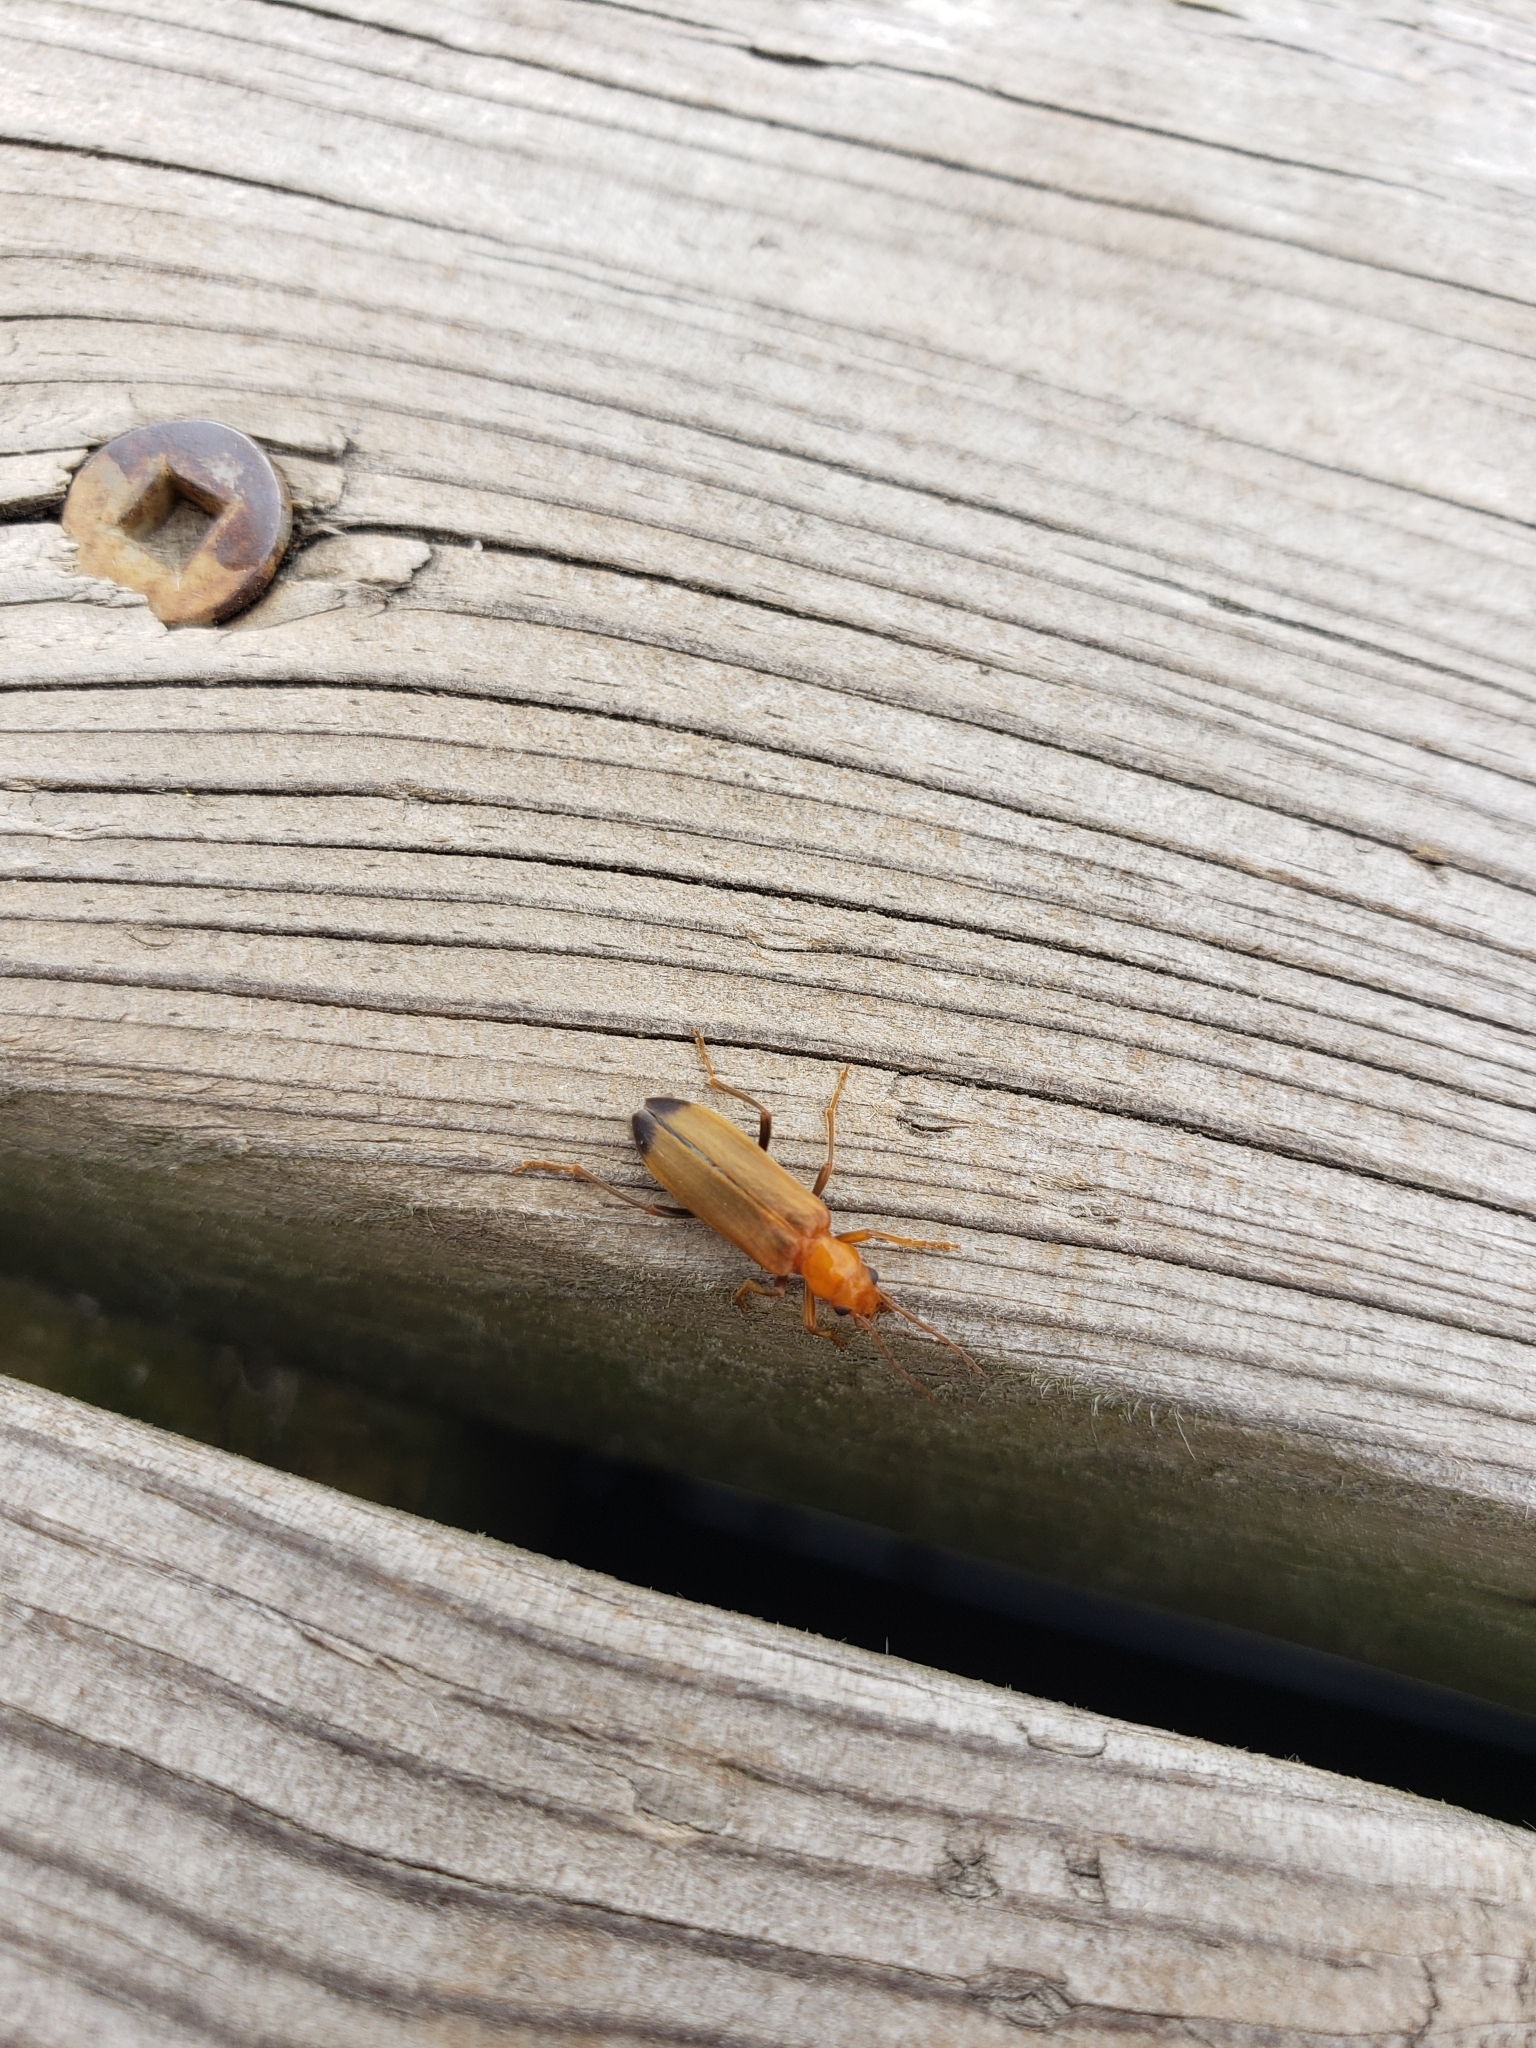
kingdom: Animalia
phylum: Arthropoda
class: Insecta
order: Coleoptera
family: Oedemeridae
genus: Nacerdes
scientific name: Nacerdes melanura
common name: Wharf borer
